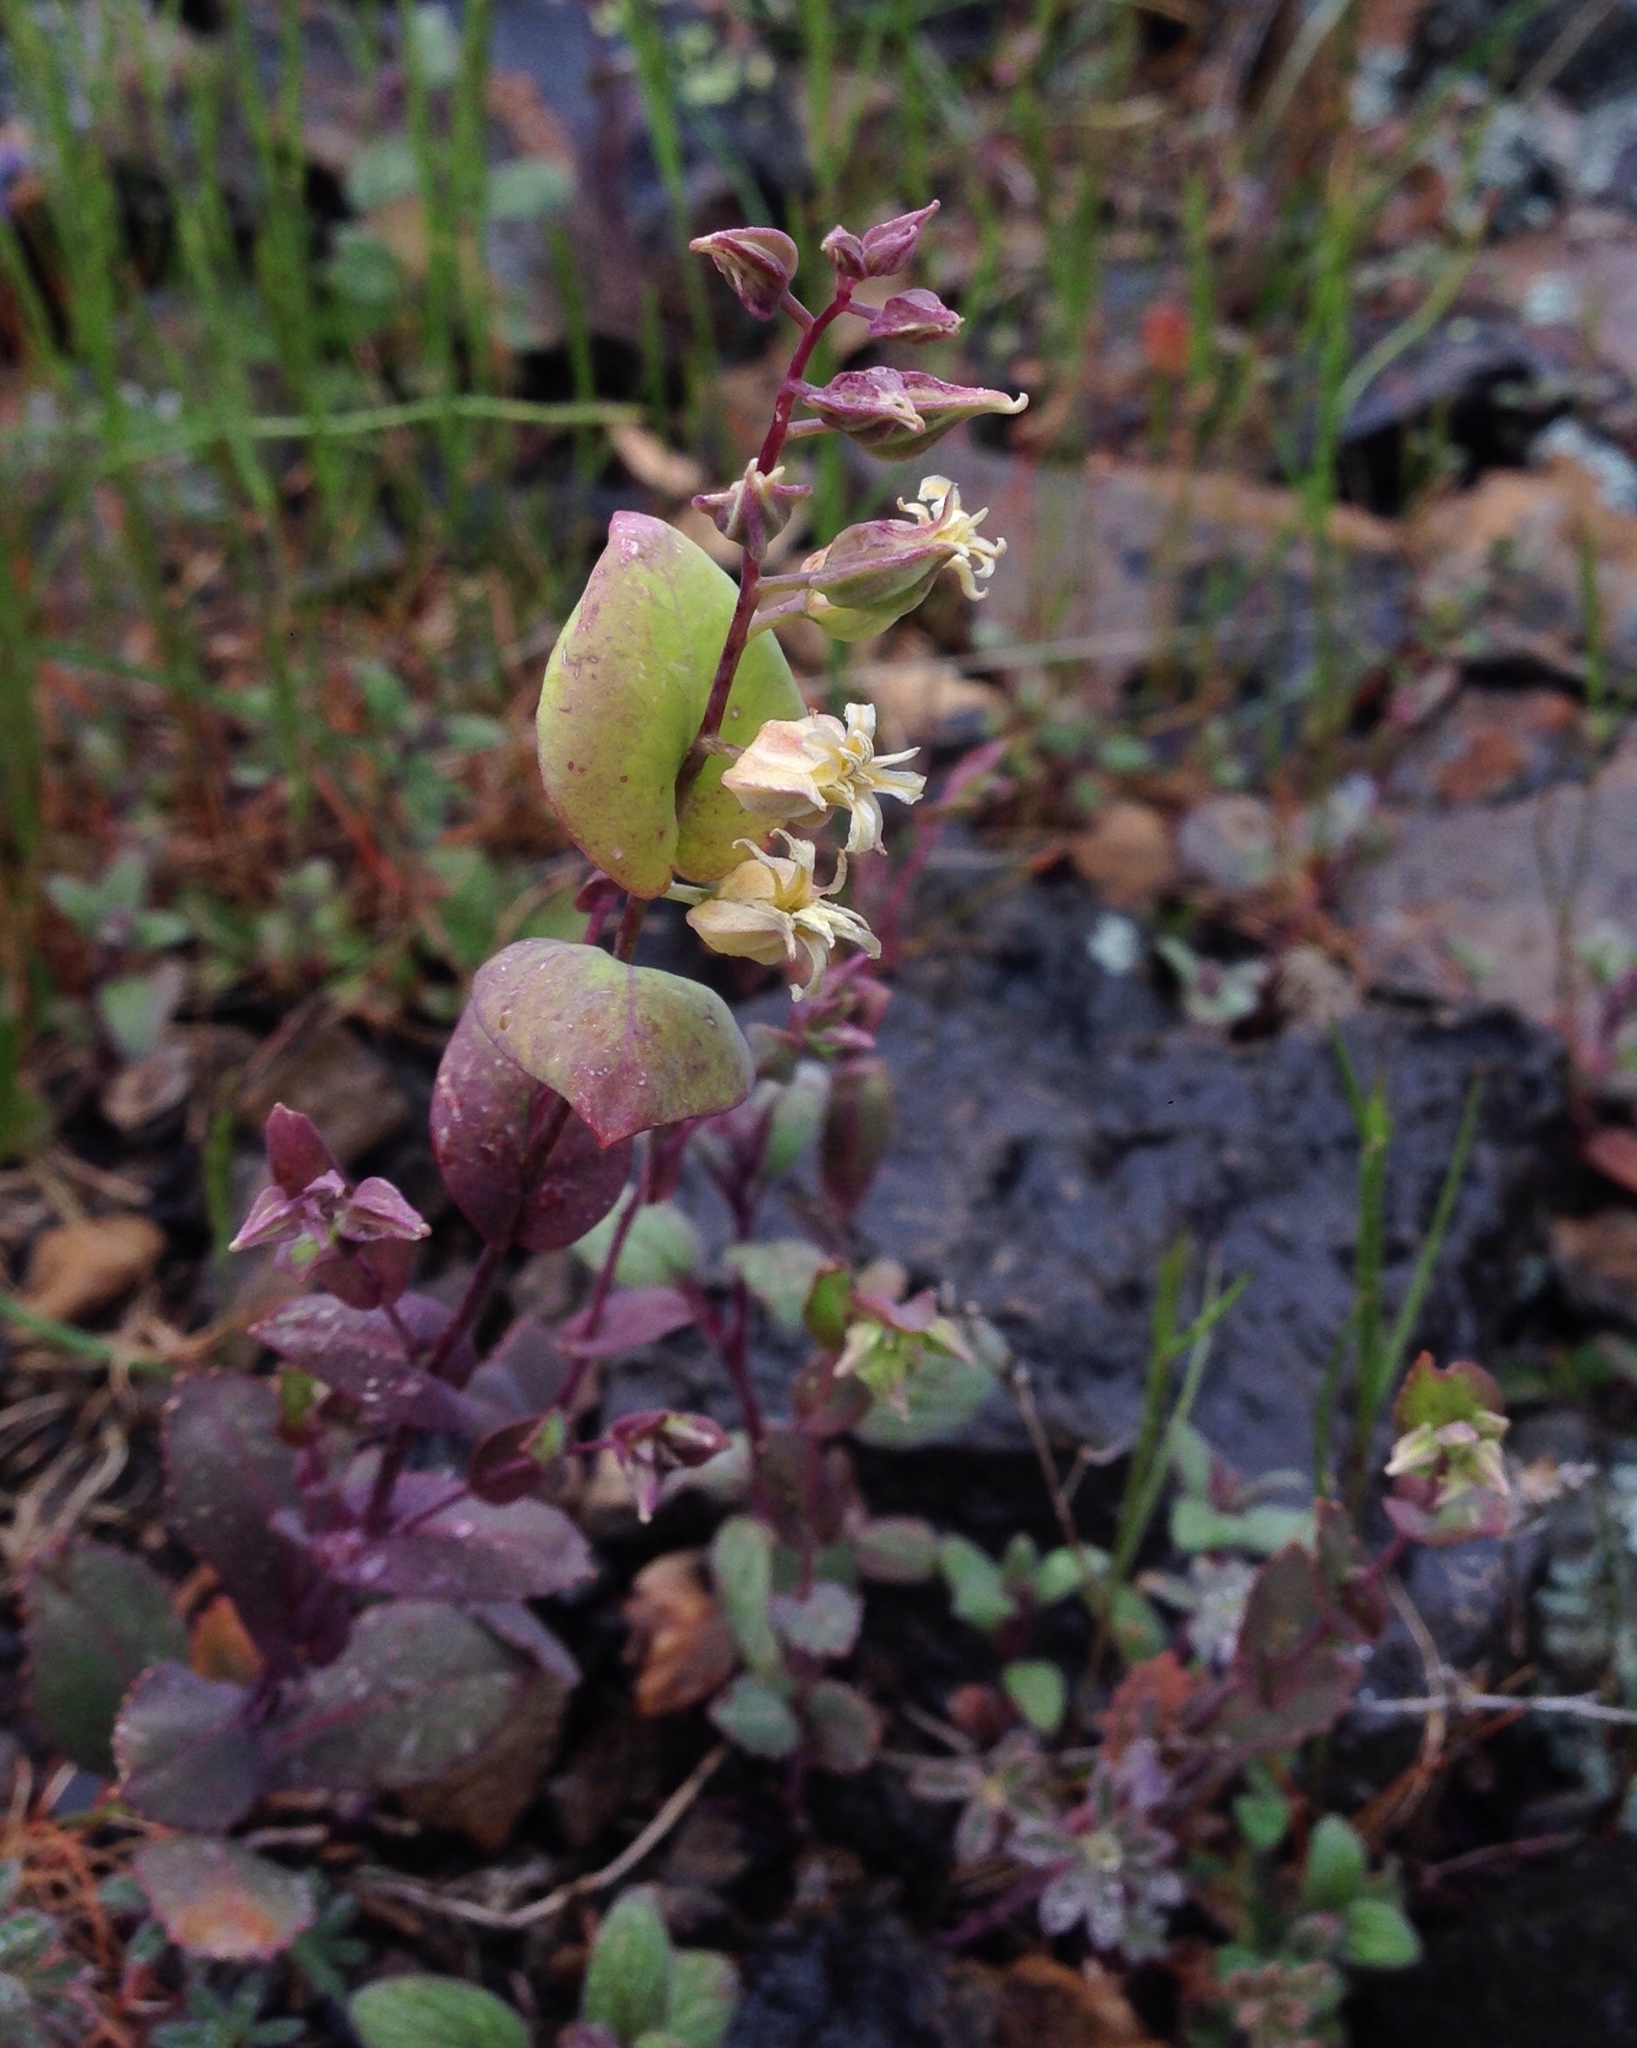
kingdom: Plantae
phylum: Tracheophyta
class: Magnoliopsida
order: Brassicales
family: Brassicaceae
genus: Streptanthus
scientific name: Streptanthus tortuosus
